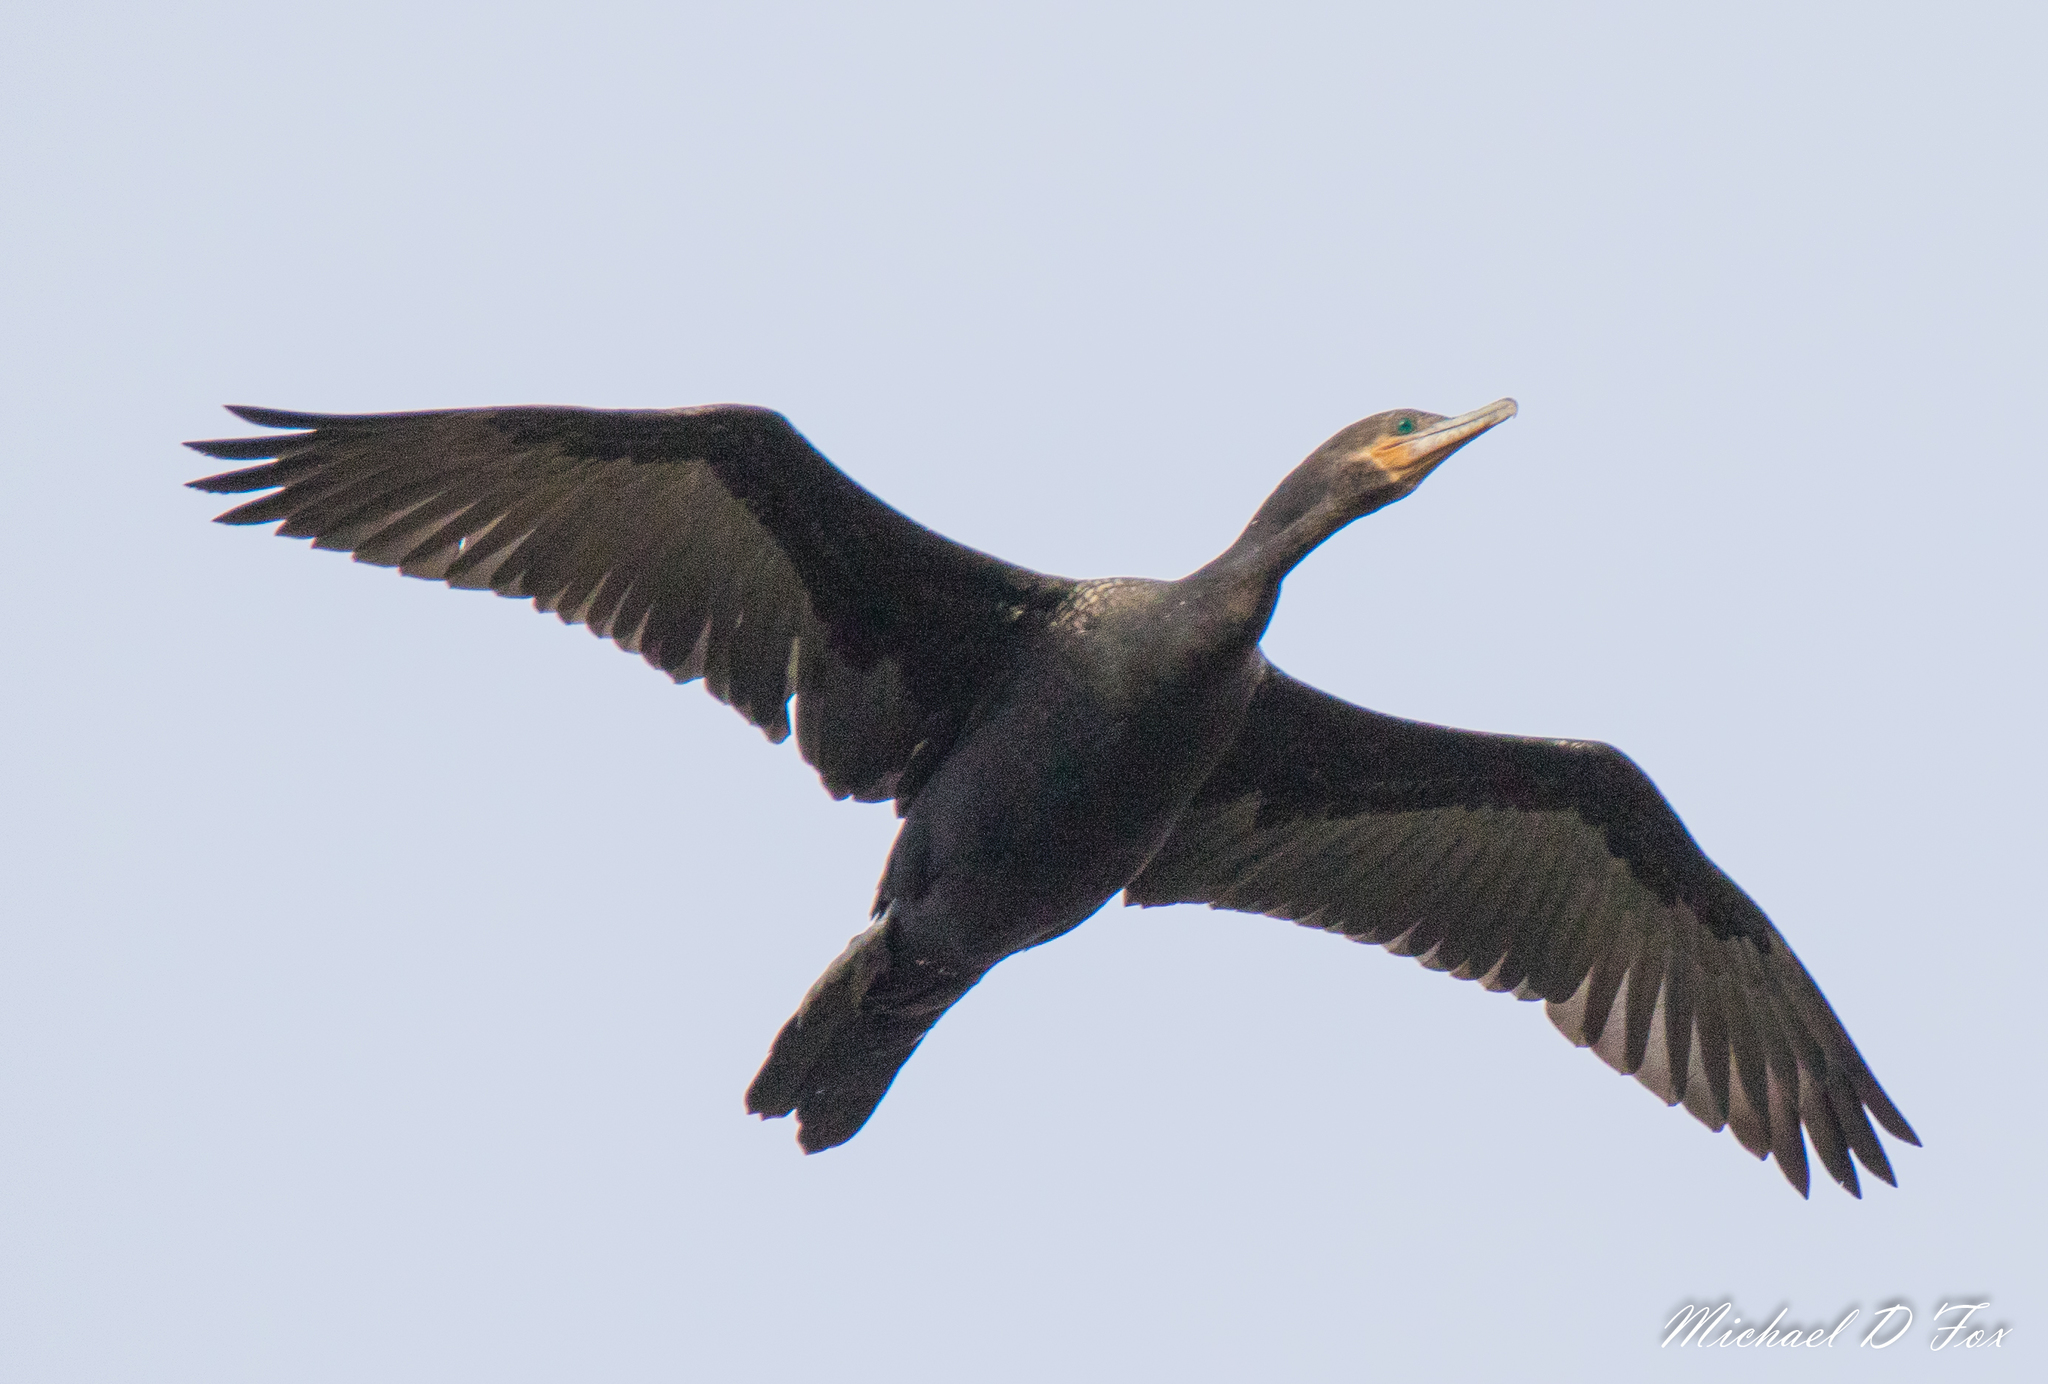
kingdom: Animalia
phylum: Chordata
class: Aves
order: Suliformes
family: Phalacrocoracidae
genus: Phalacrocorax
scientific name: Phalacrocorax brasilianus
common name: Neotropic cormorant
